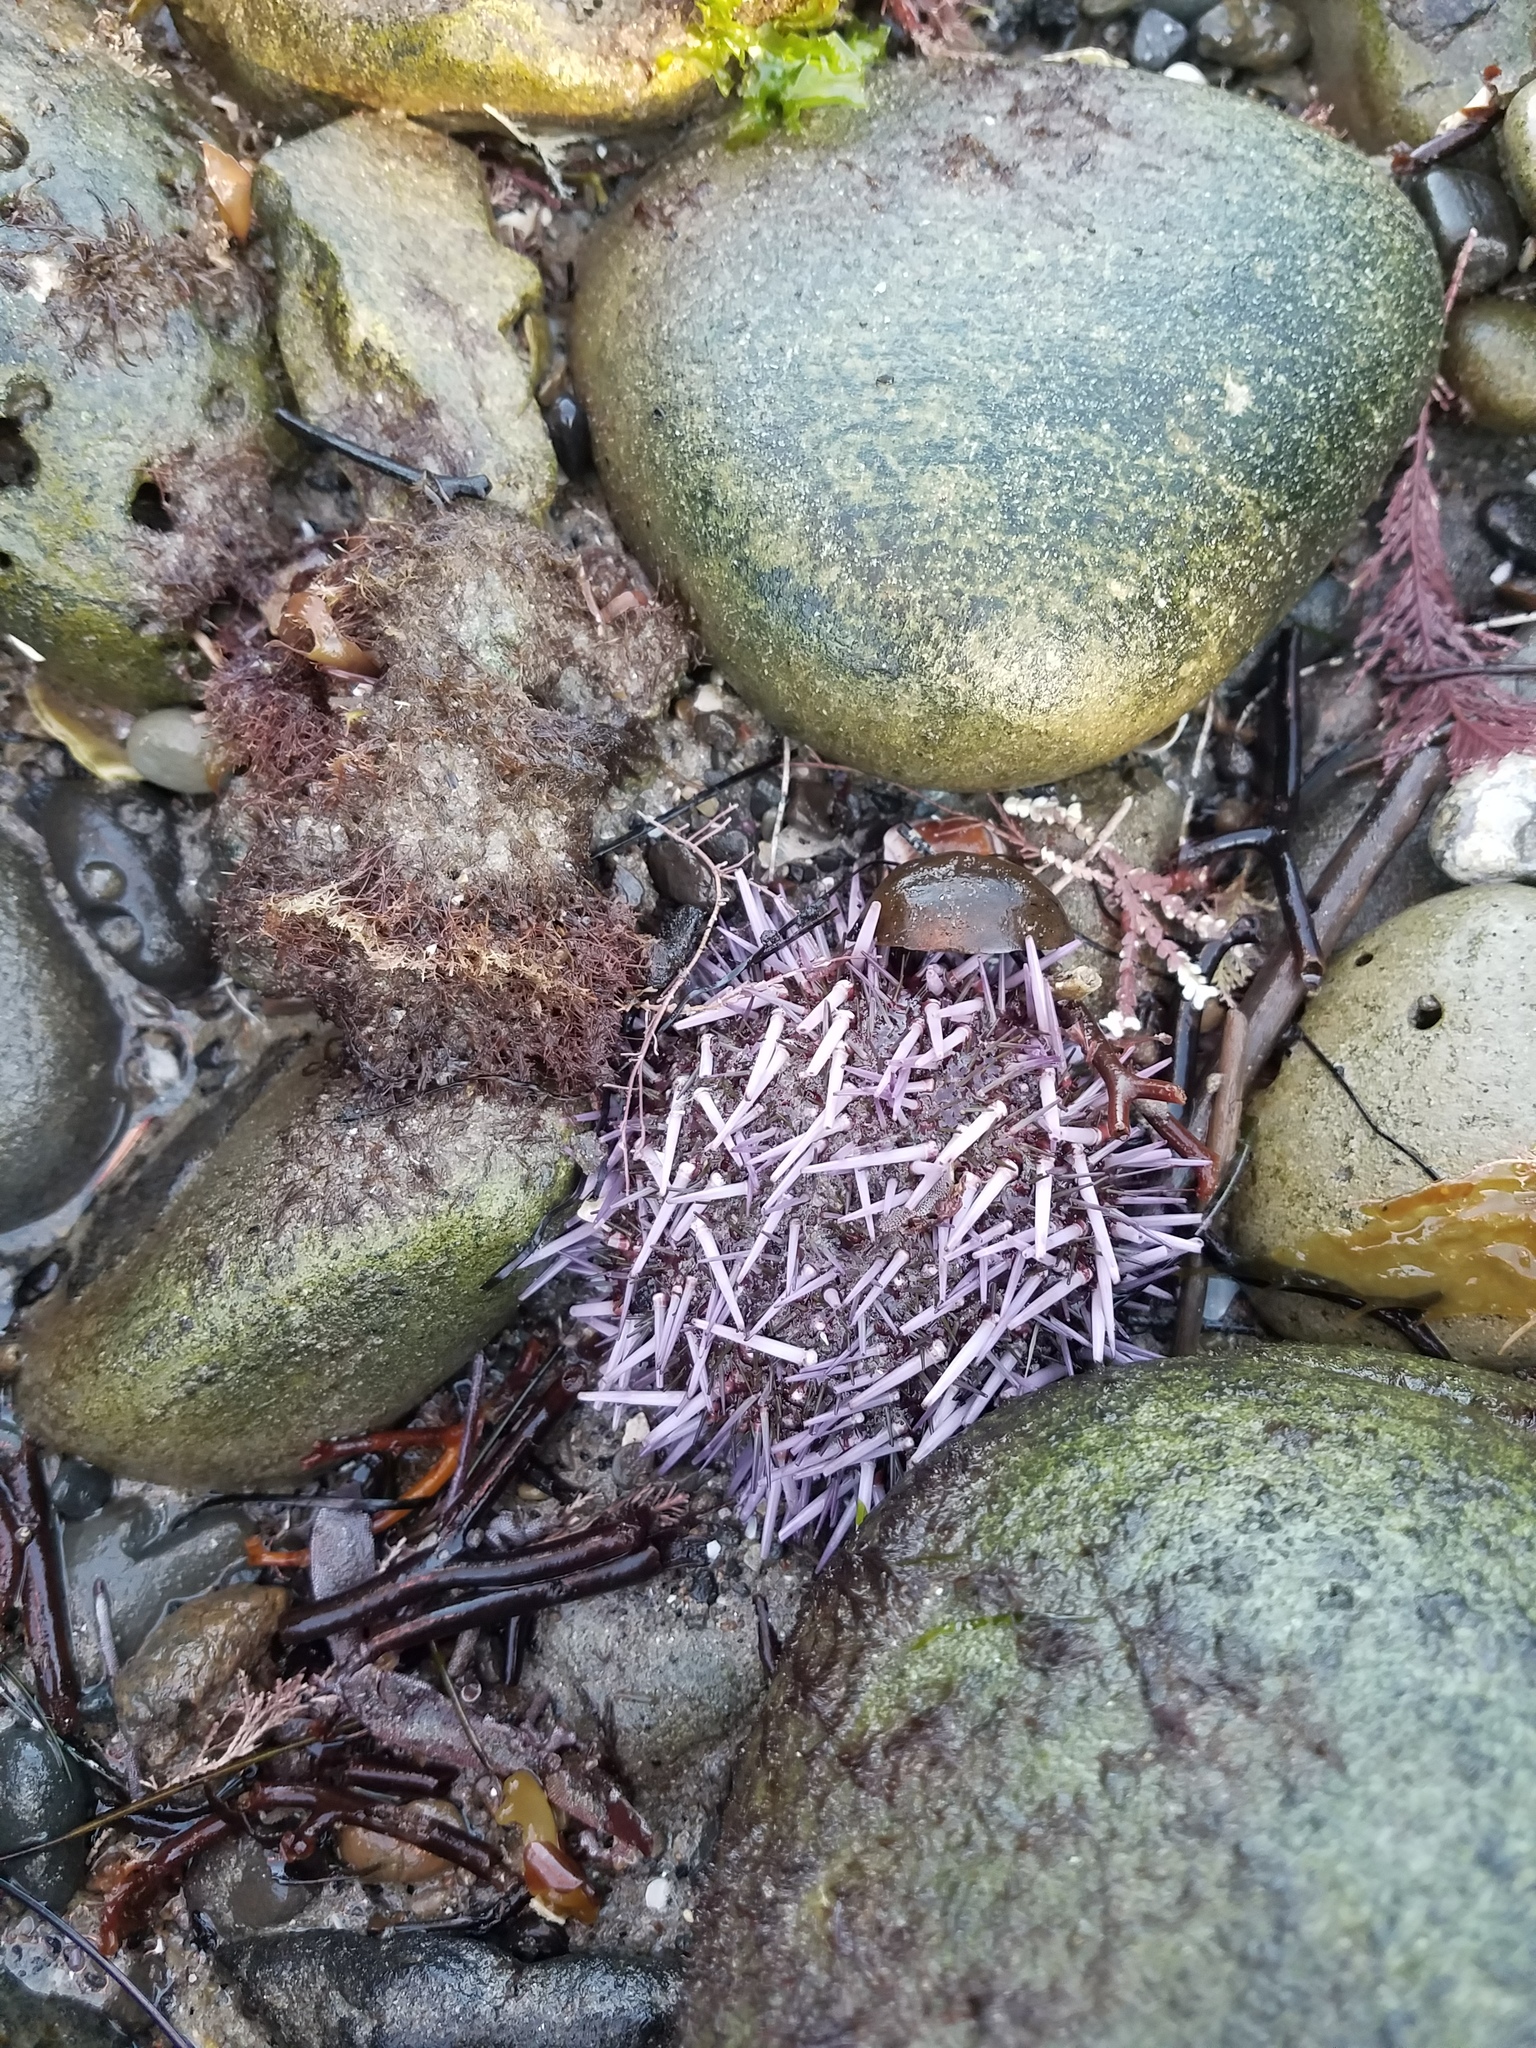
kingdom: Animalia
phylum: Echinodermata
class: Echinoidea
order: Camarodonta
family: Strongylocentrotidae
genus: Strongylocentrotus
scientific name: Strongylocentrotus purpuratus
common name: Purple sea urchin
